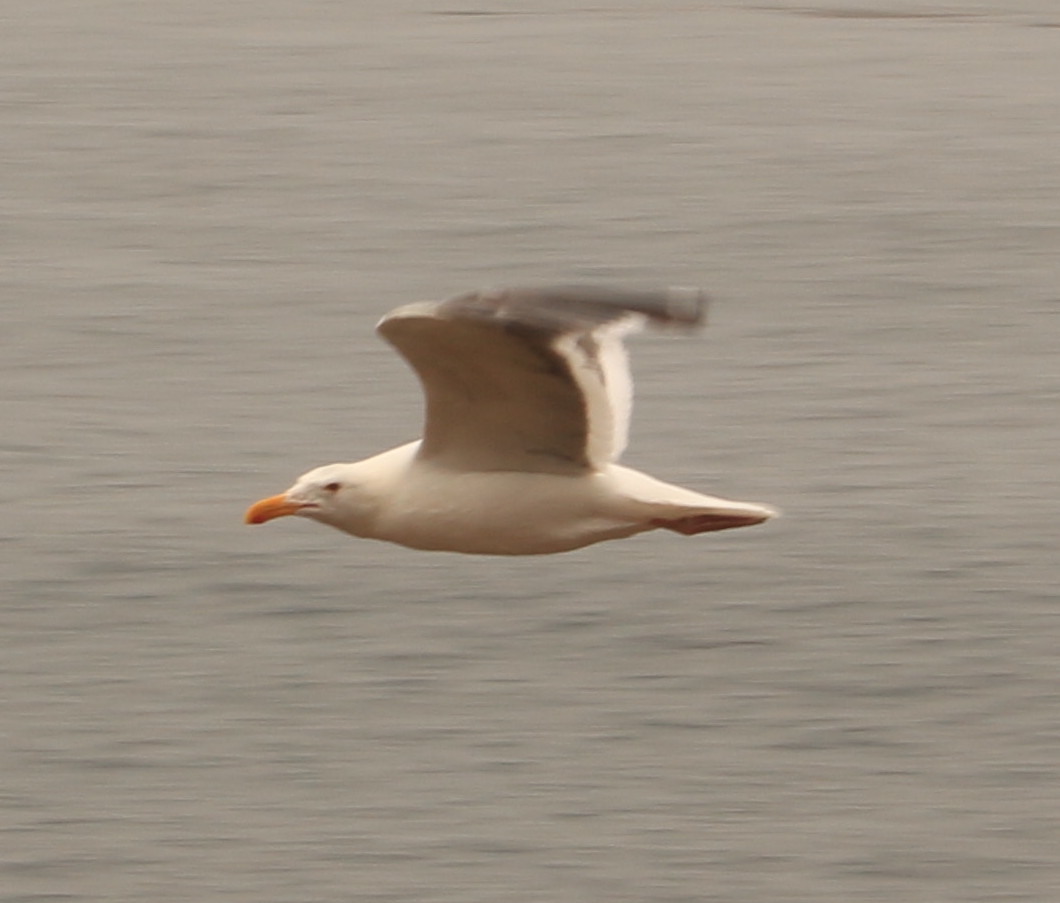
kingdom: Animalia
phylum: Chordata
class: Aves
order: Charadriiformes
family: Laridae
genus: Larus
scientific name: Larus occidentalis
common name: Western gull
